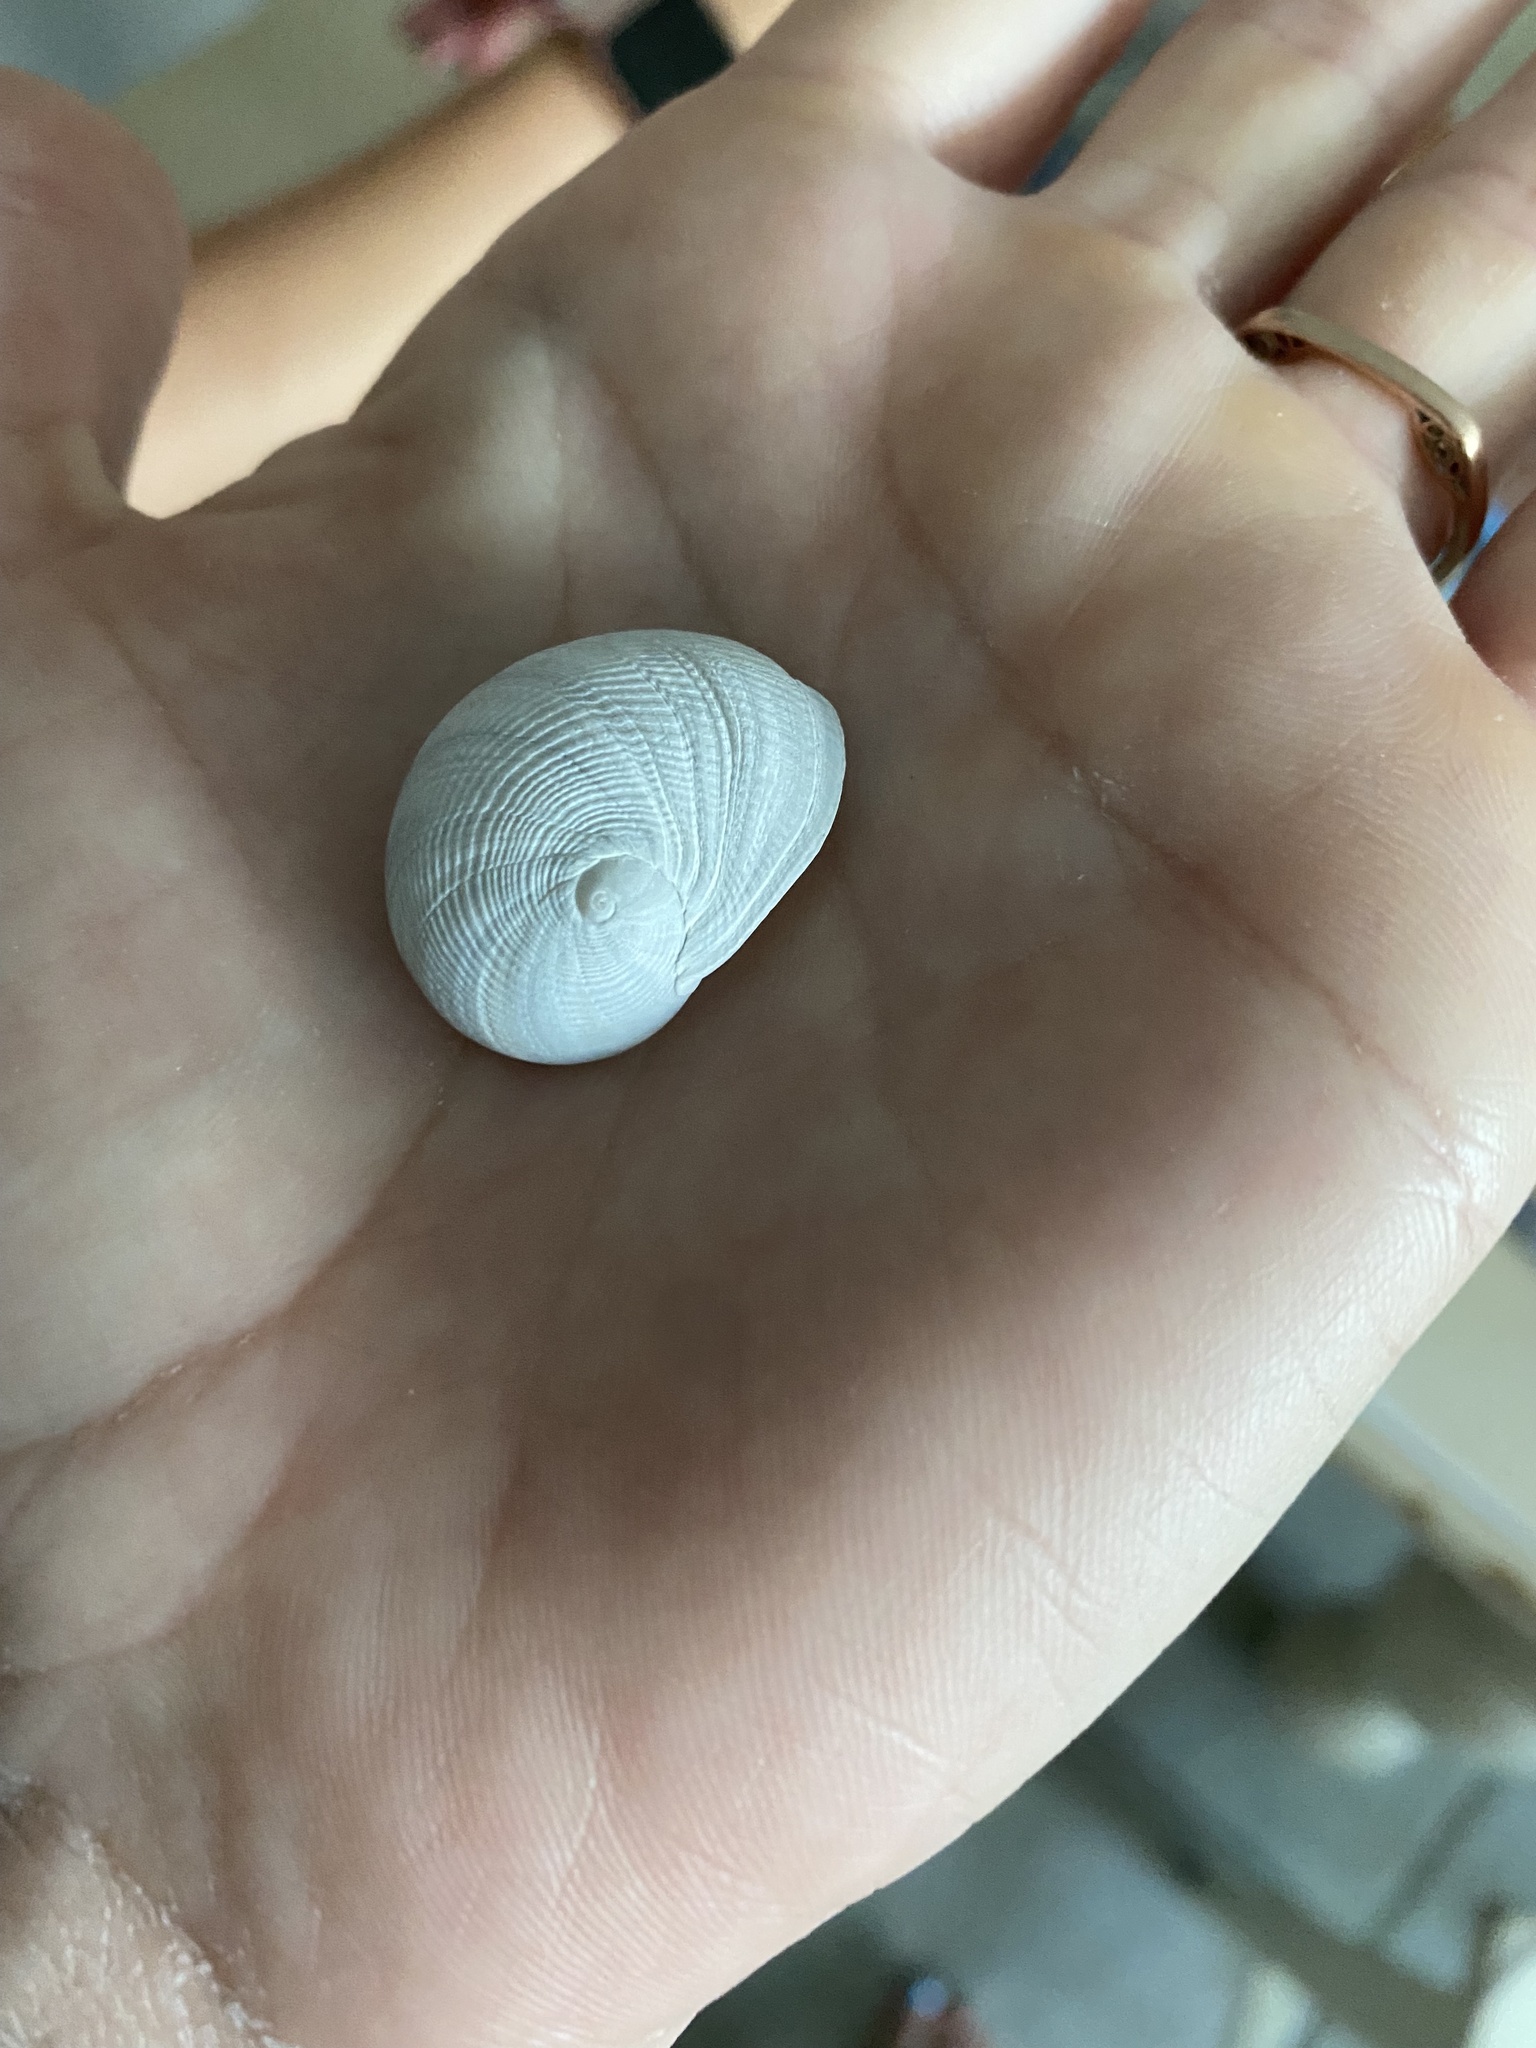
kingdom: Animalia
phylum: Mollusca
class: Gastropoda
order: Littorinimorpha
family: Naticidae
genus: Sinum
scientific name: Sinum perspectivum
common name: White baby ear
